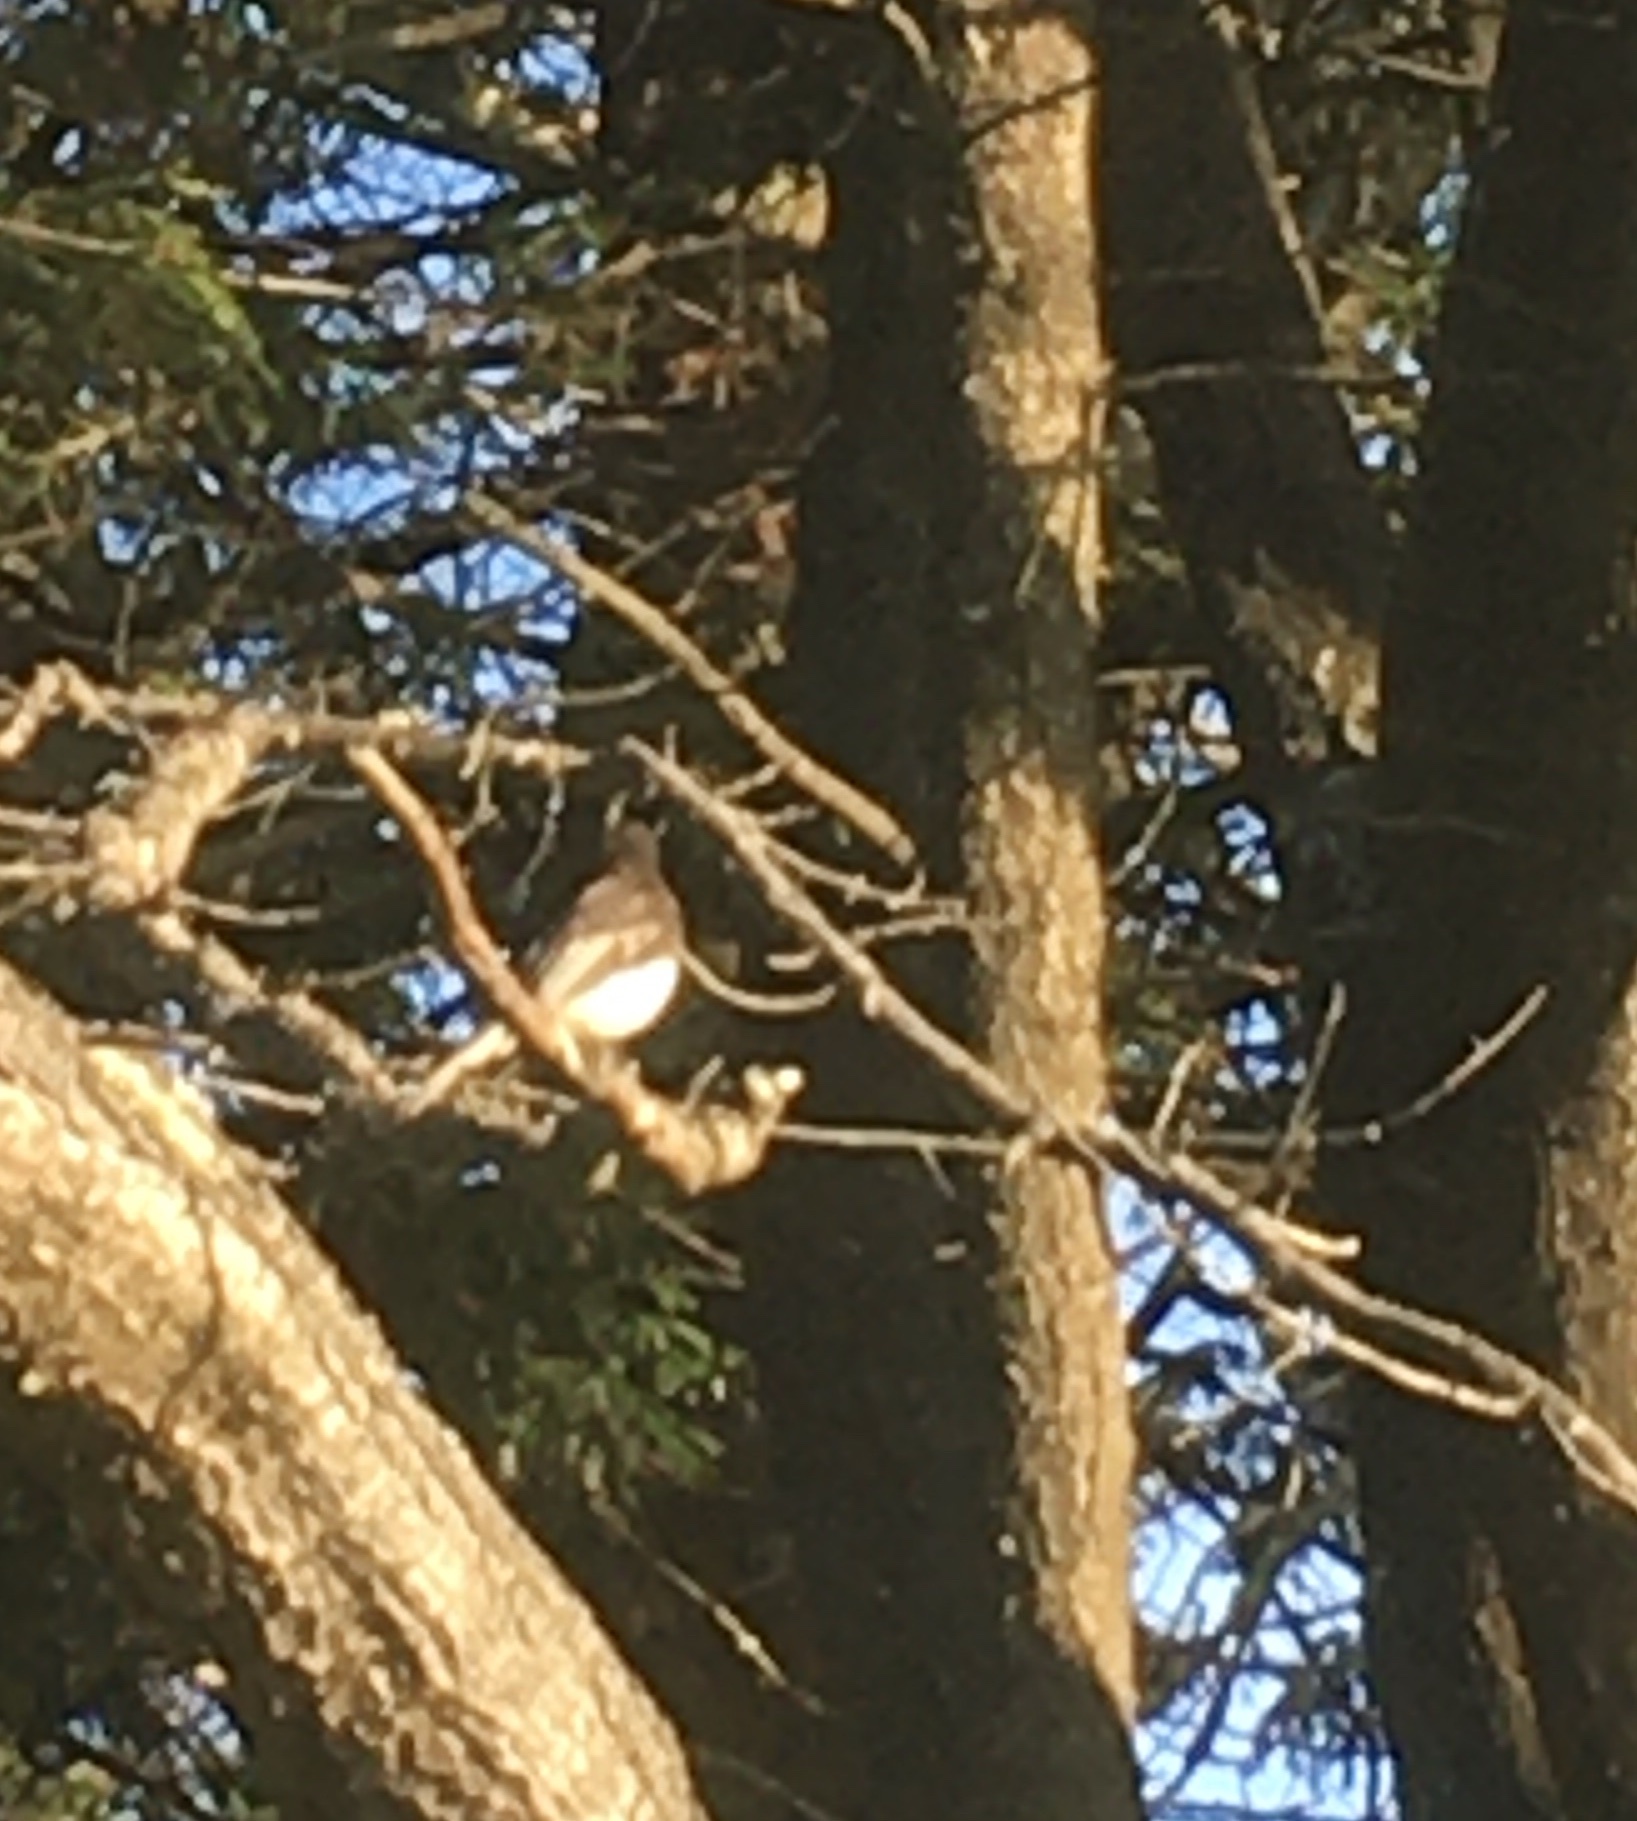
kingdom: Animalia
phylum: Chordata
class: Aves
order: Passeriformes
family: Tyrannidae
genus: Sayornis
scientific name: Sayornis nigricans
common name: Black phoebe
